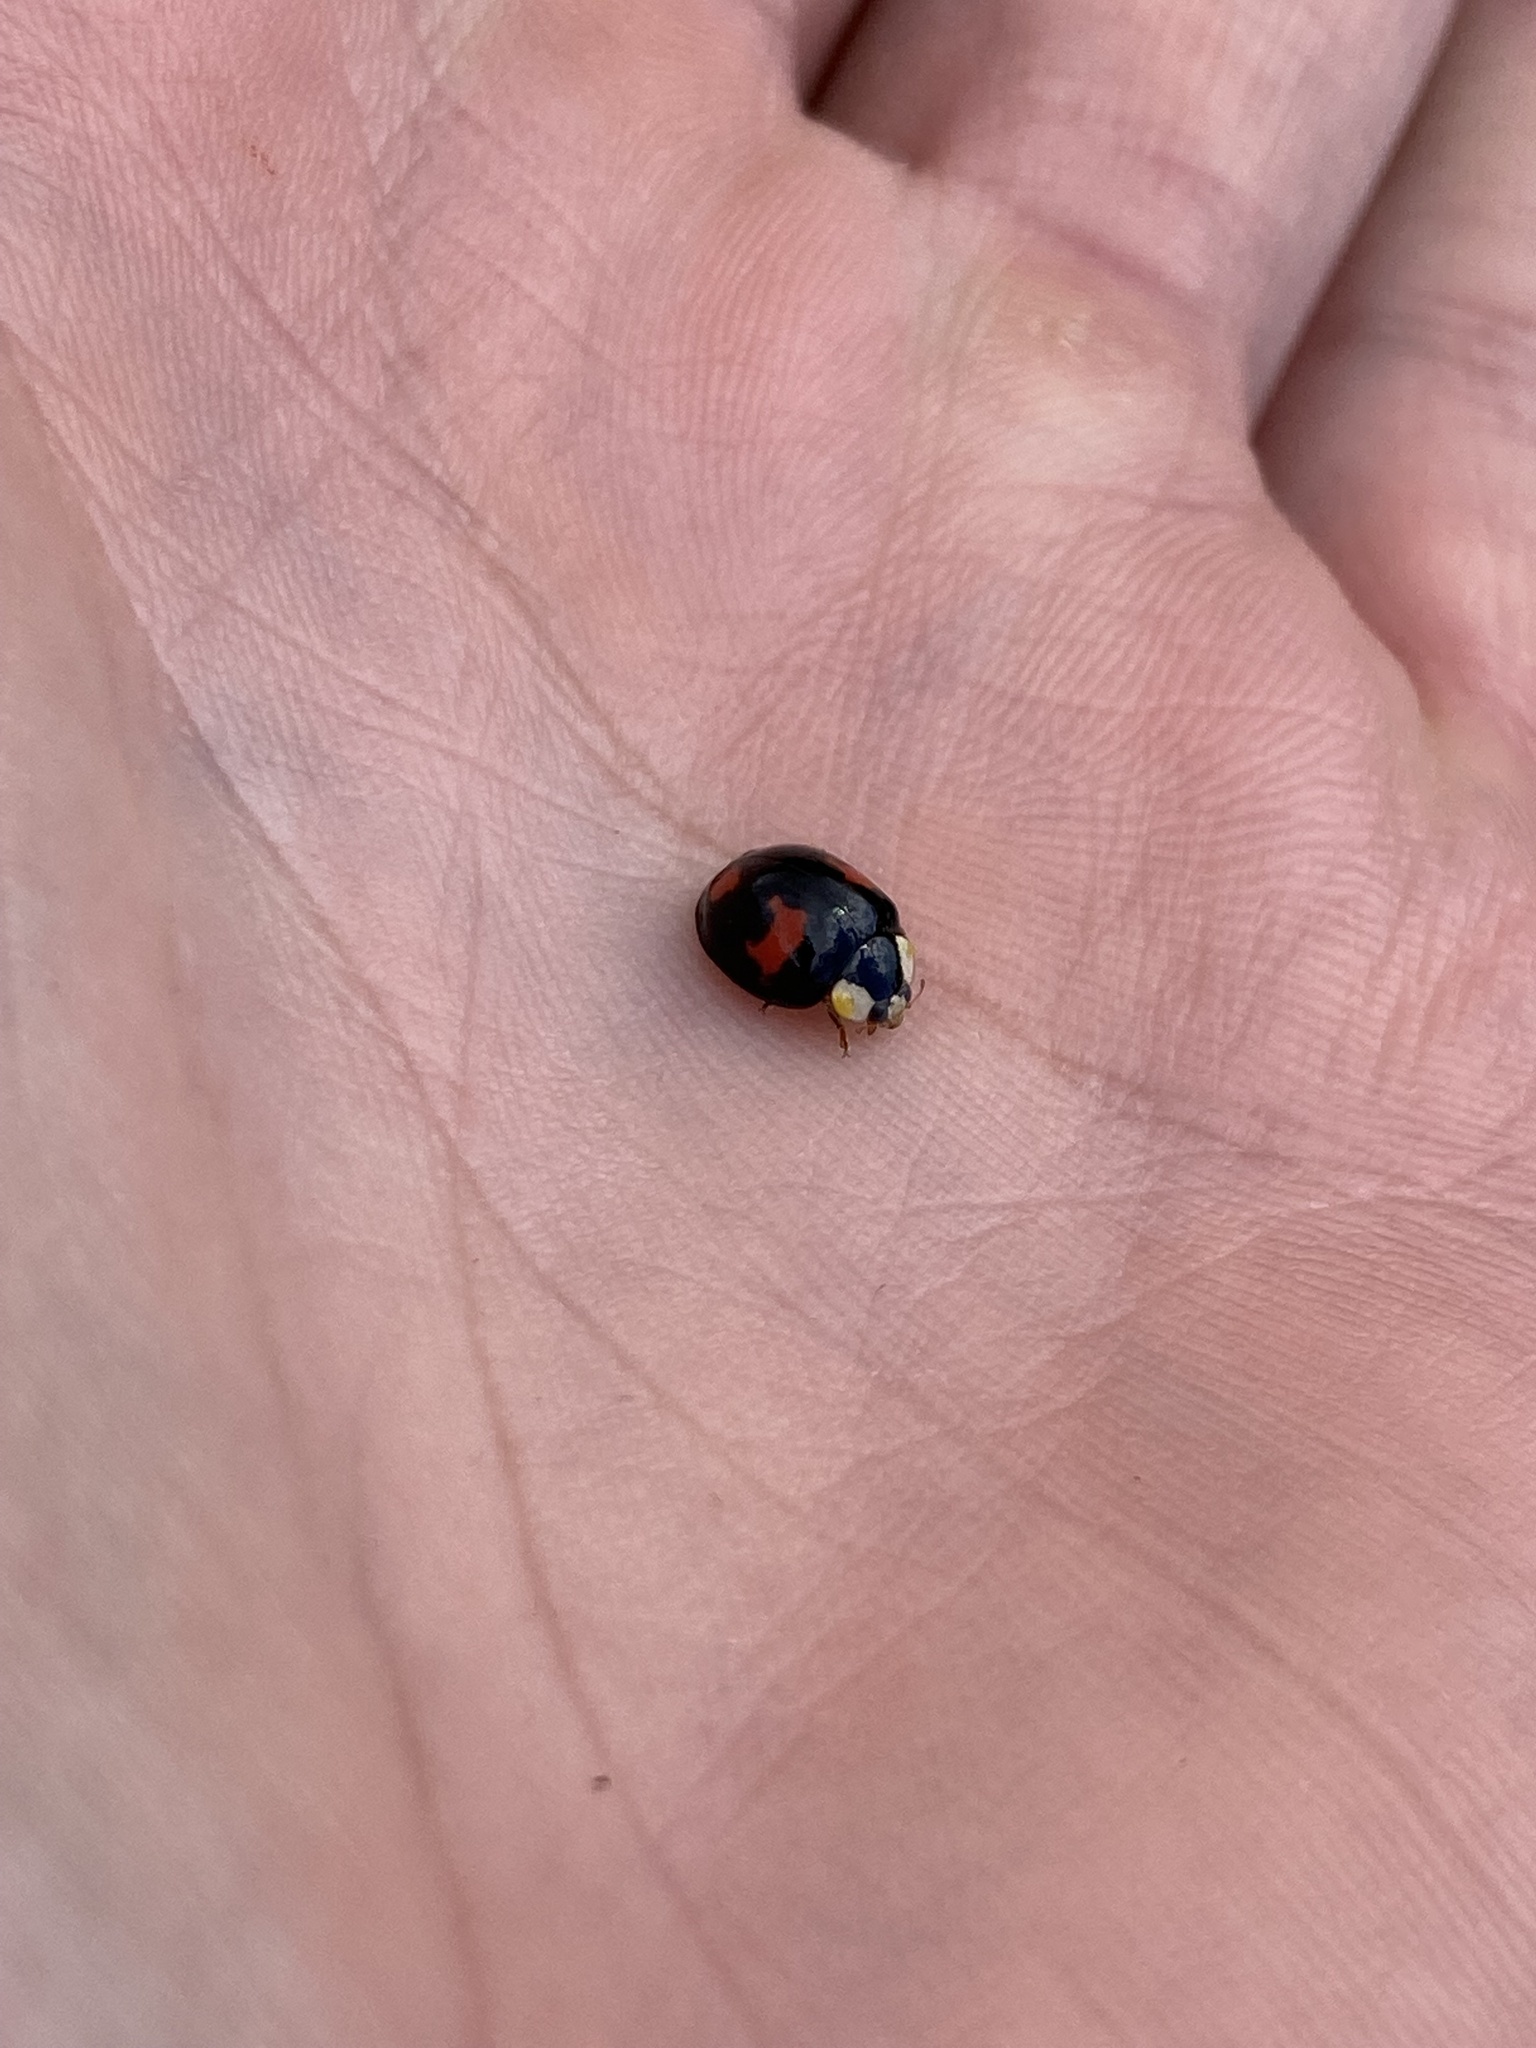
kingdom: Animalia
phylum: Arthropoda
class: Insecta
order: Coleoptera
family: Coccinellidae
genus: Harmonia
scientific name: Harmonia axyridis
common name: Harlequin ladybird
